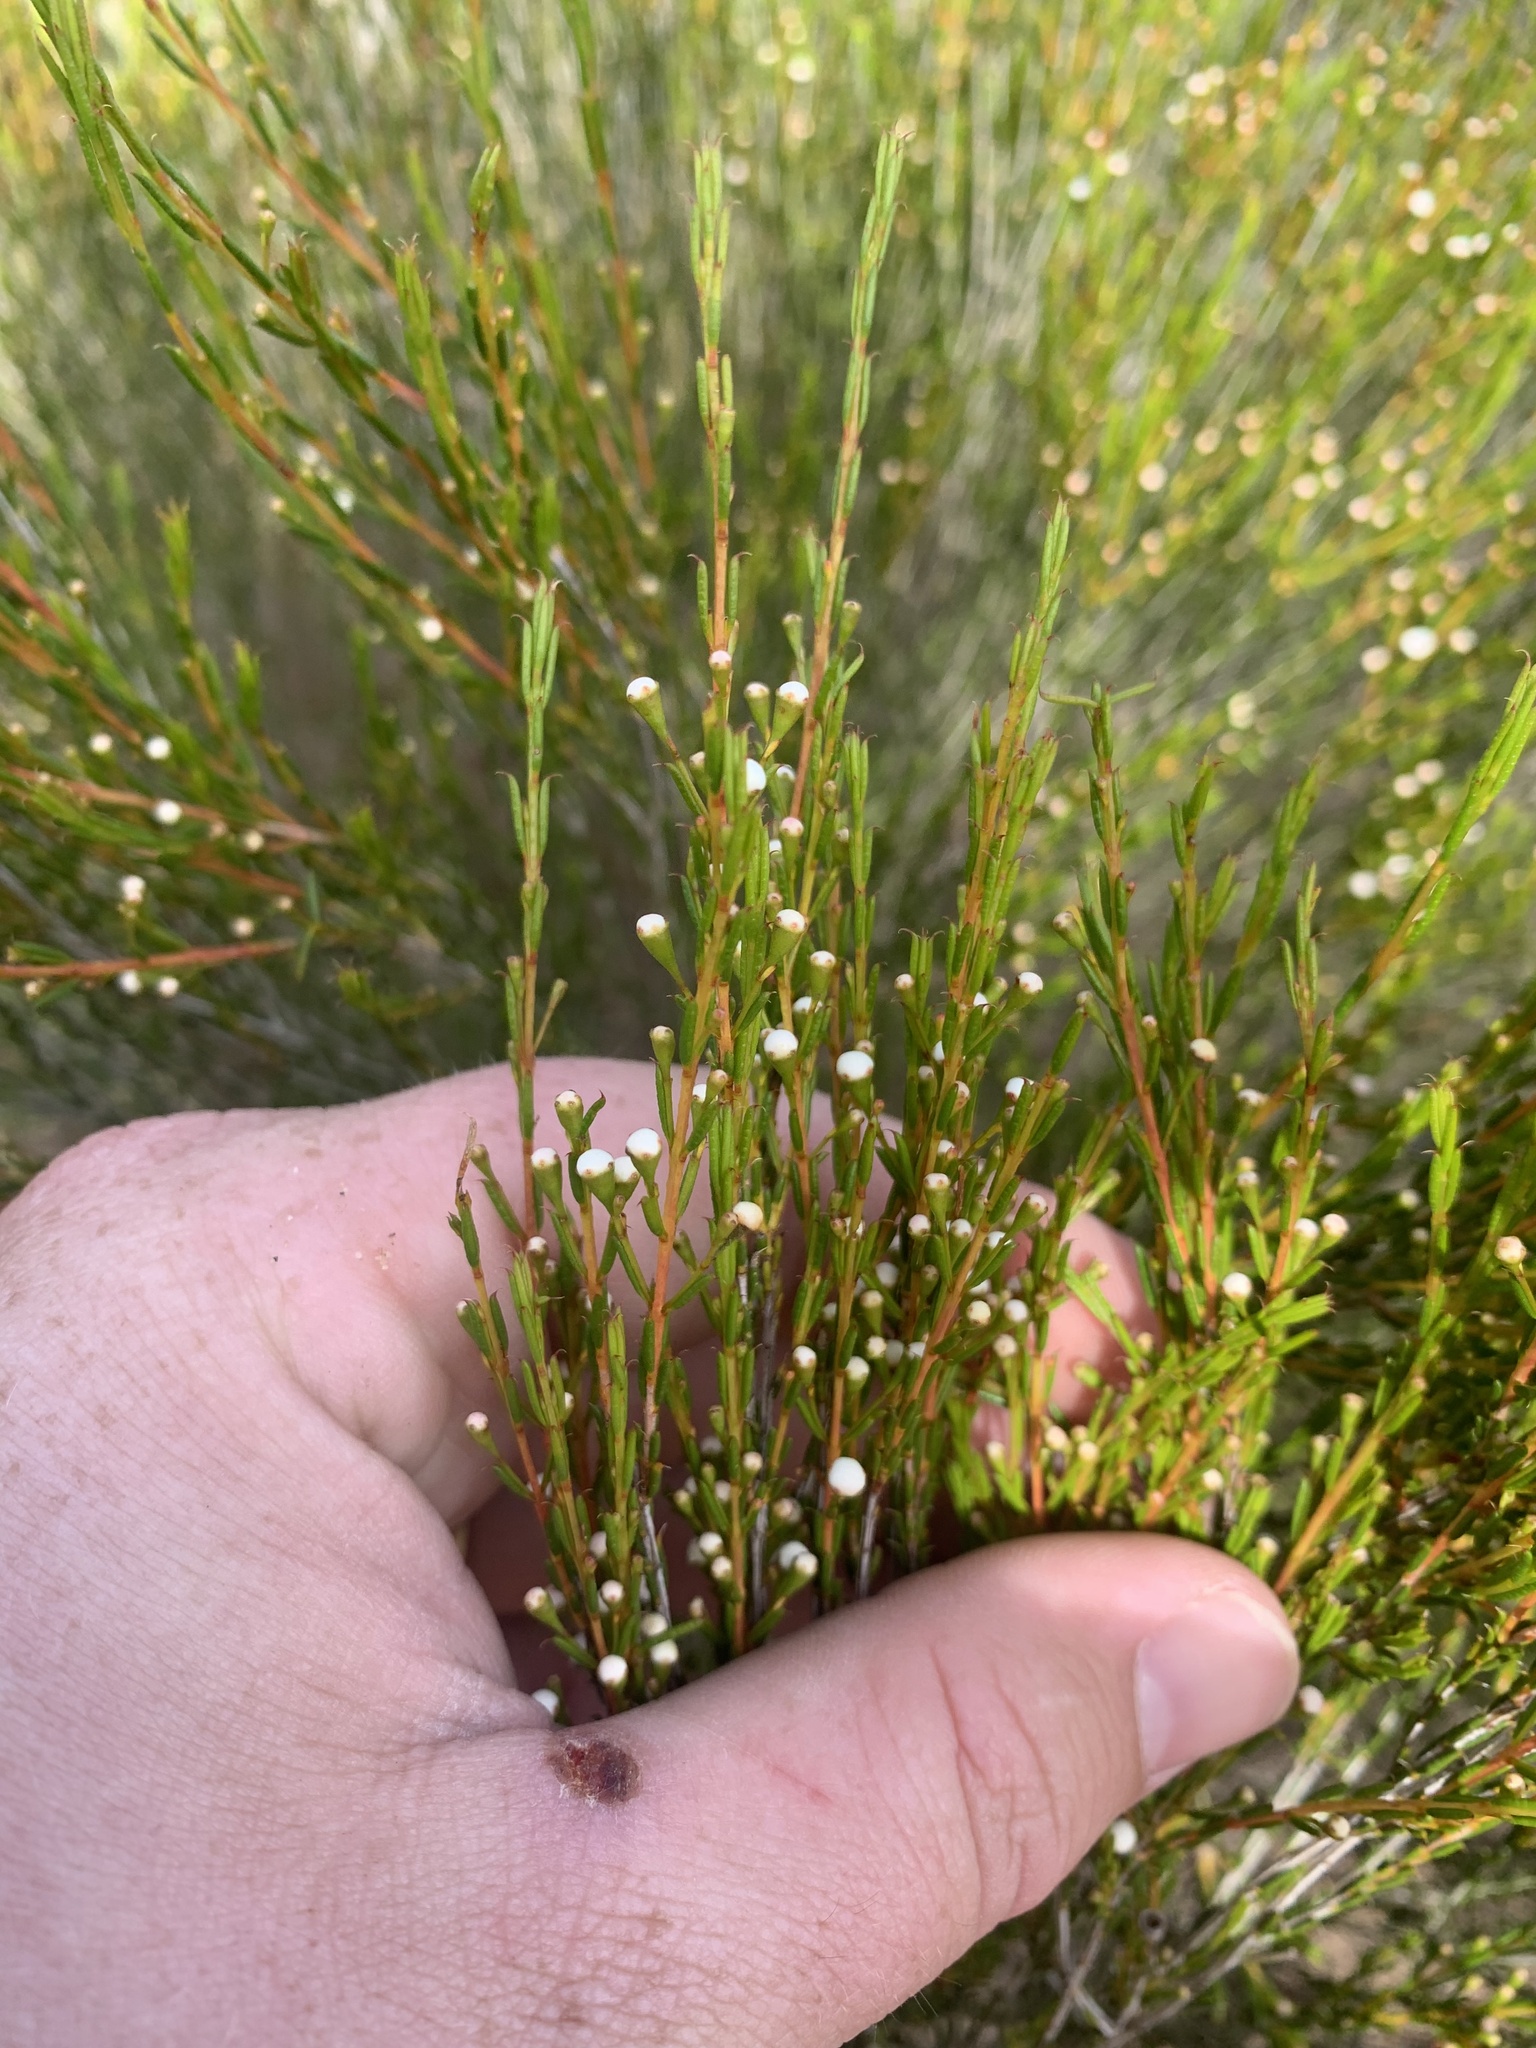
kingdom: Plantae
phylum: Tracheophyta
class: Magnoliopsida
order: Myrtales
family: Myrtaceae
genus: Hysterobaeckea
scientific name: Hysterobaeckea behrii
